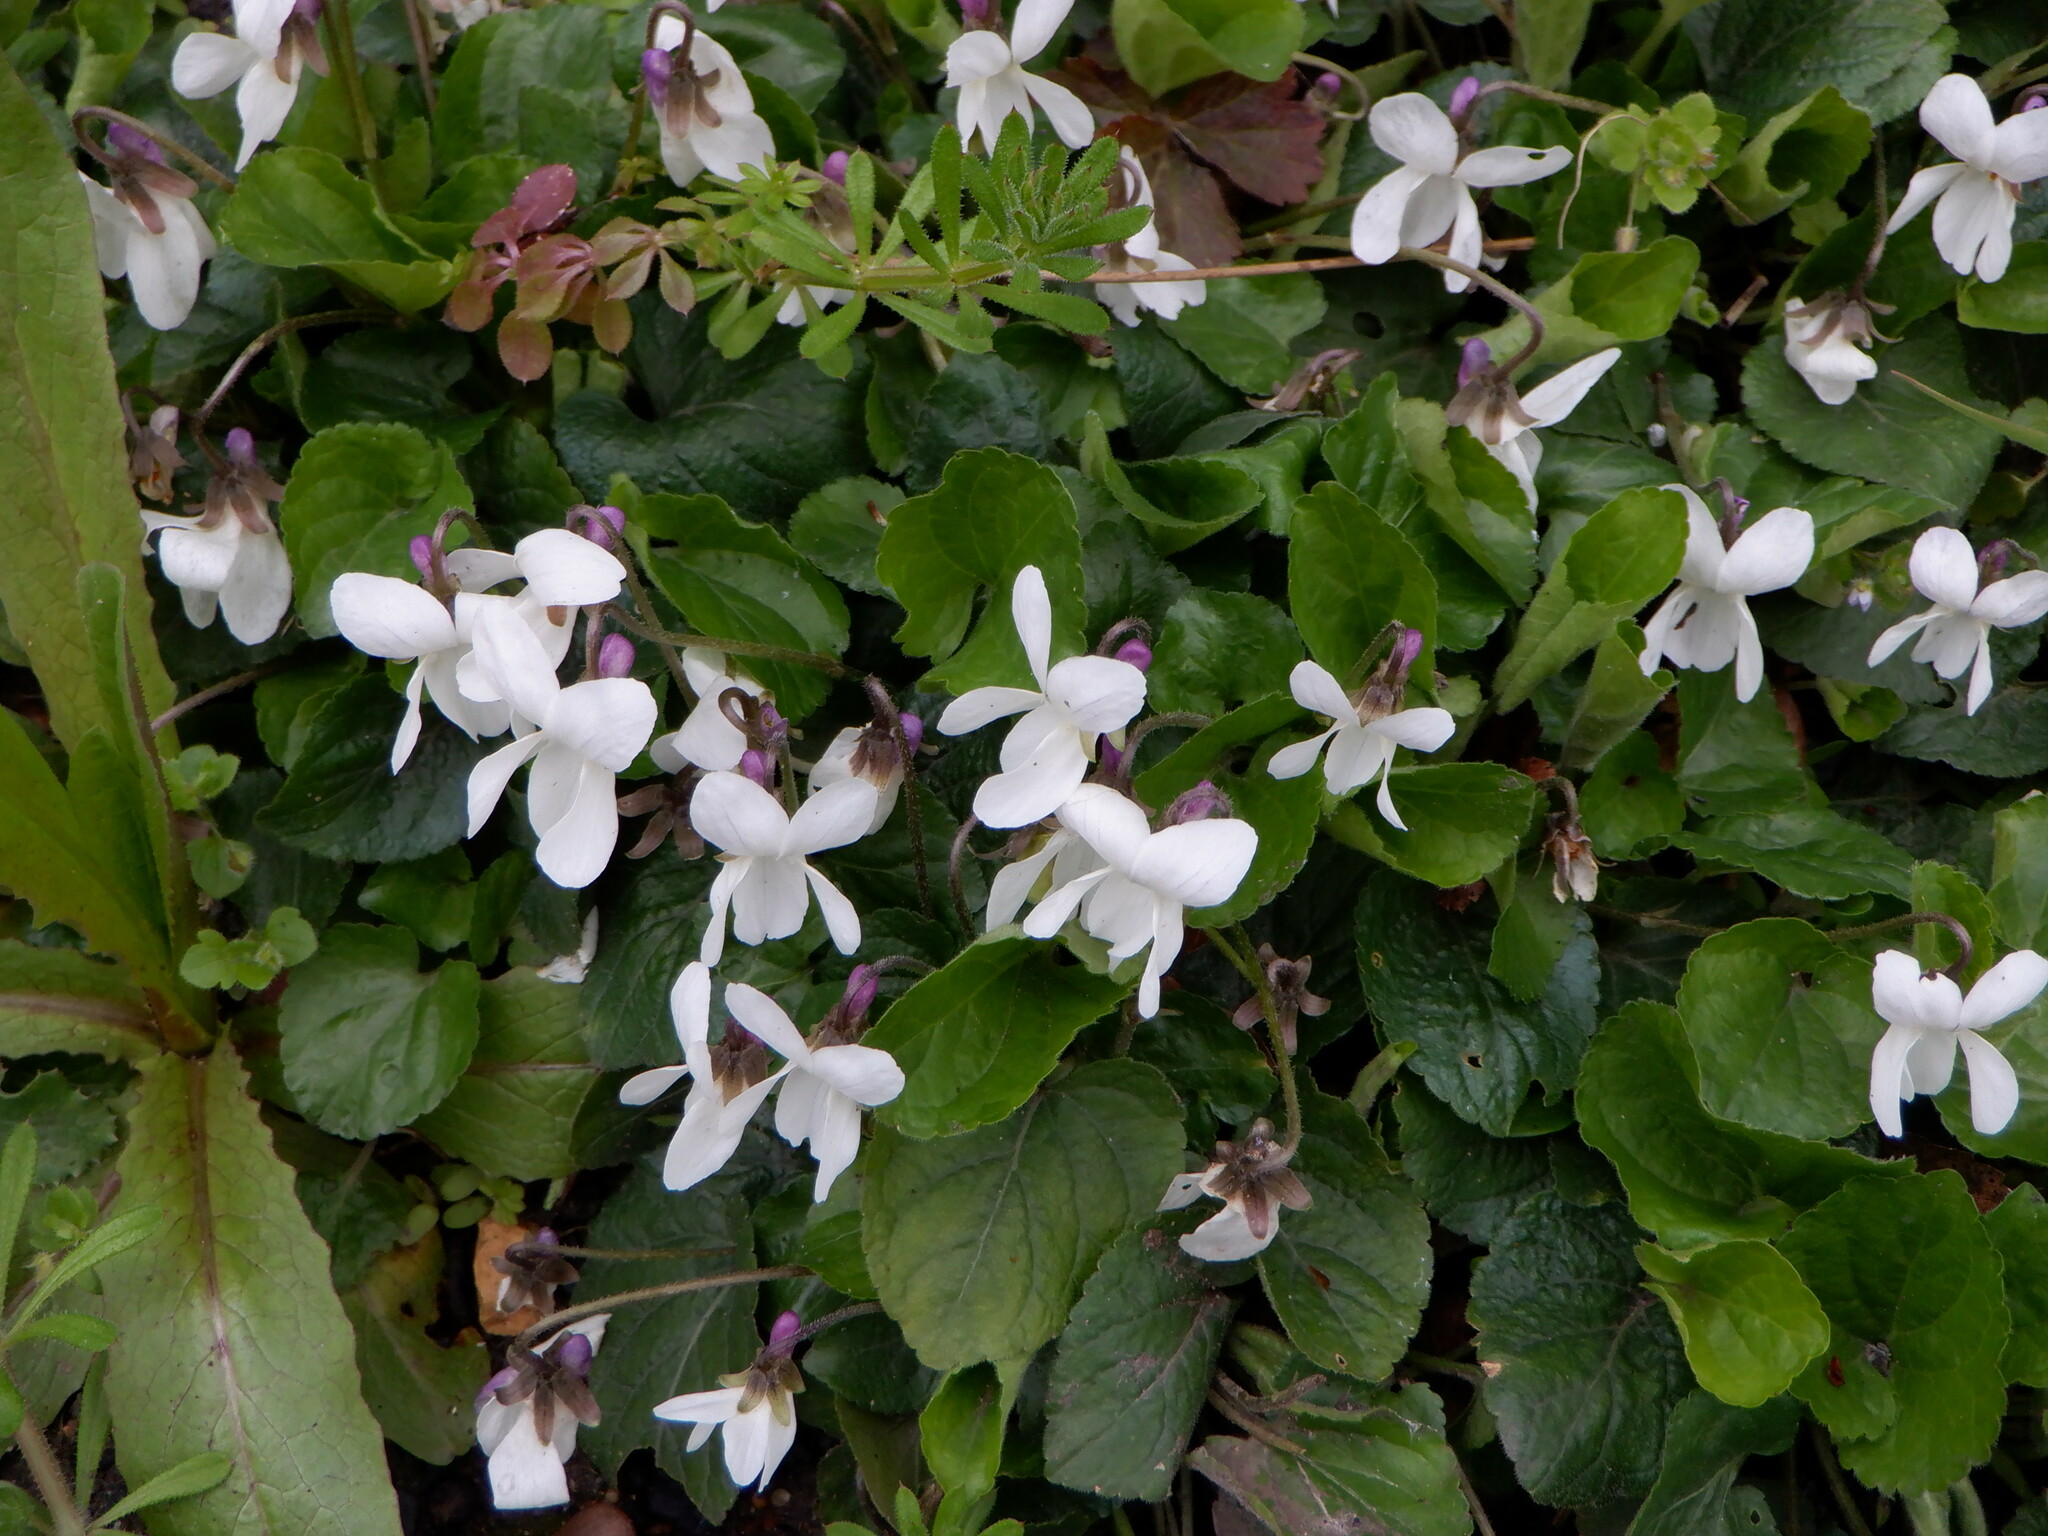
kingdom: Plantae
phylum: Tracheophyta
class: Magnoliopsida
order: Malpighiales
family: Violaceae
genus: Viola
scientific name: Viola odorata
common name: Sweet violet
